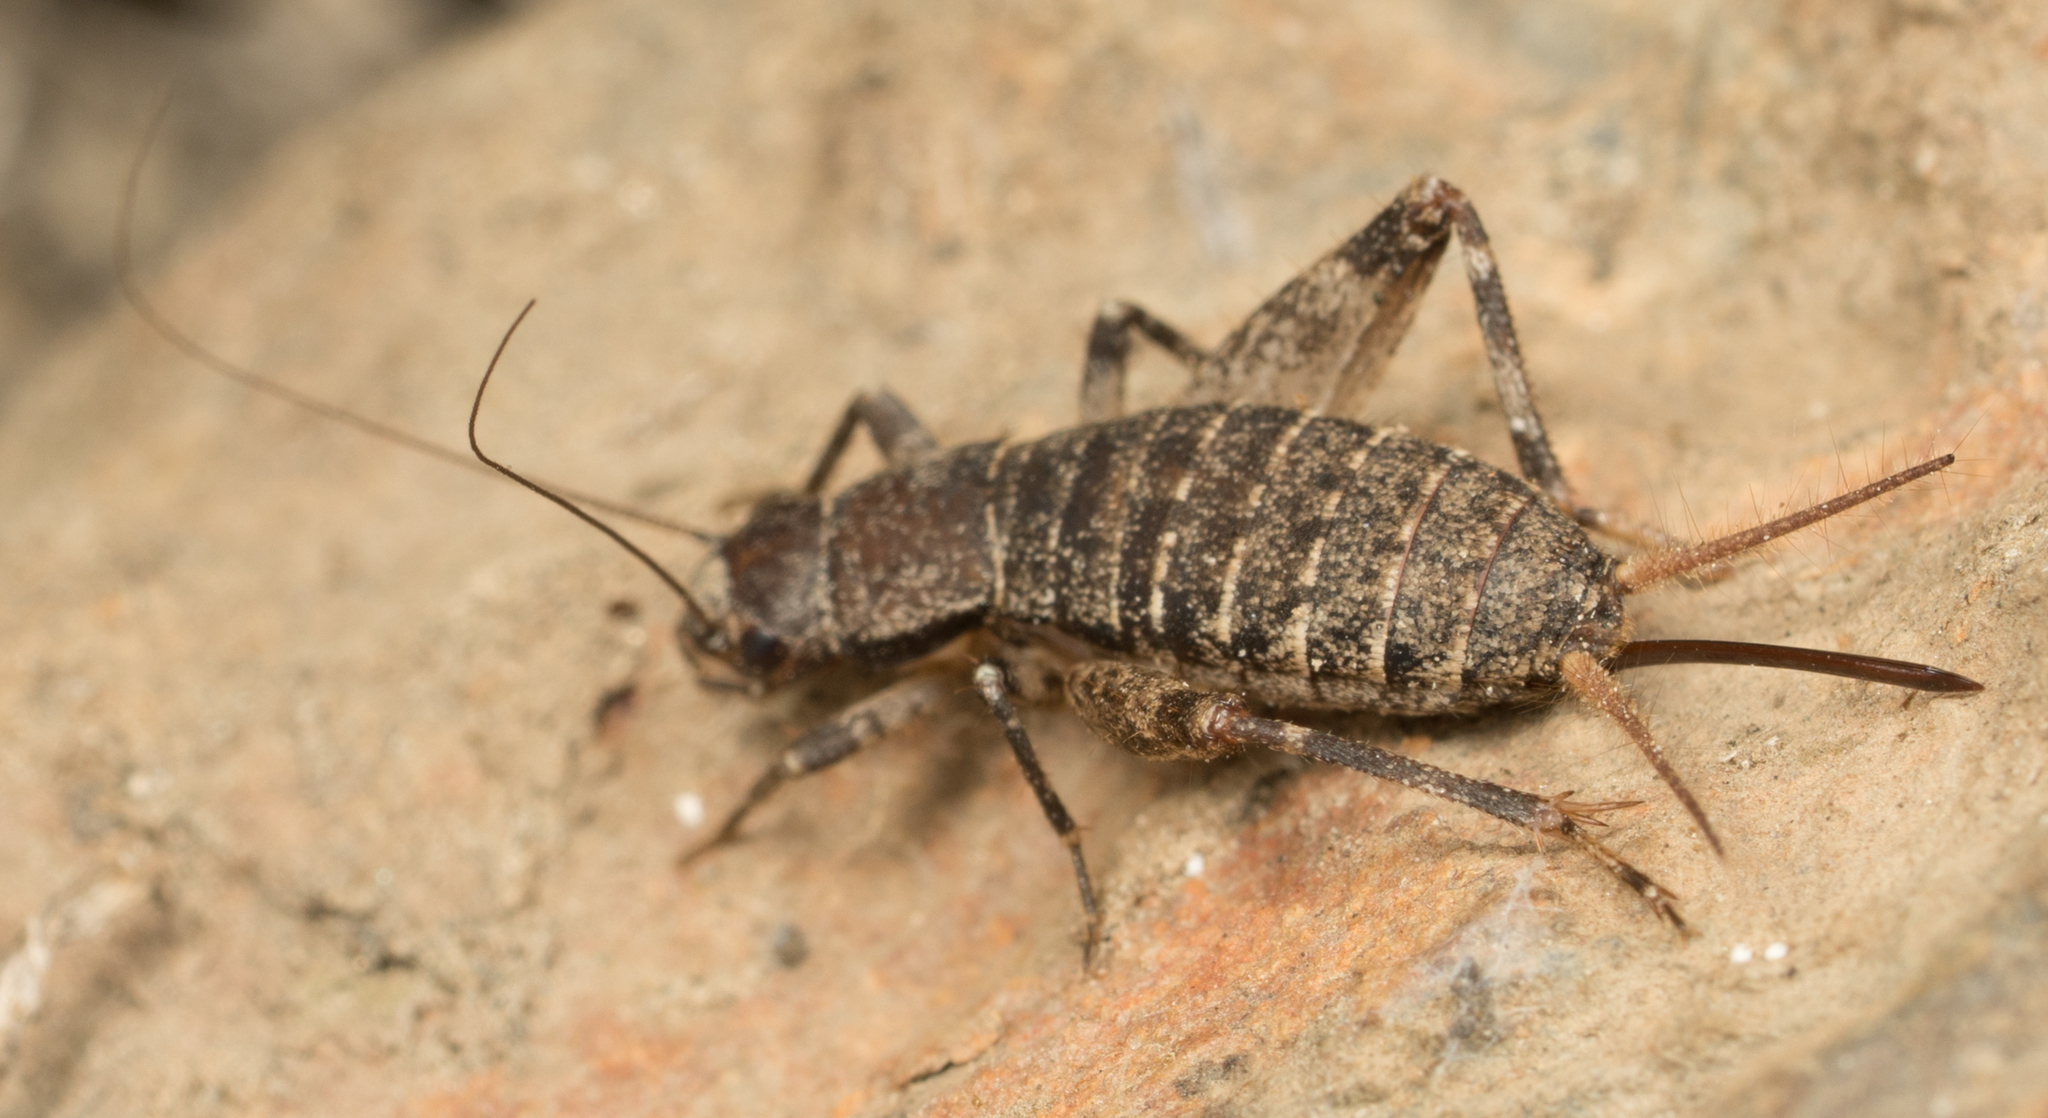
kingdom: Animalia
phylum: Arthropoda
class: Insecta
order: Orthoptera
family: Mogoplistidae
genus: Hoplosphyrum
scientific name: Hoplosphyrum boreale
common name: Long-winged scaly cricket
